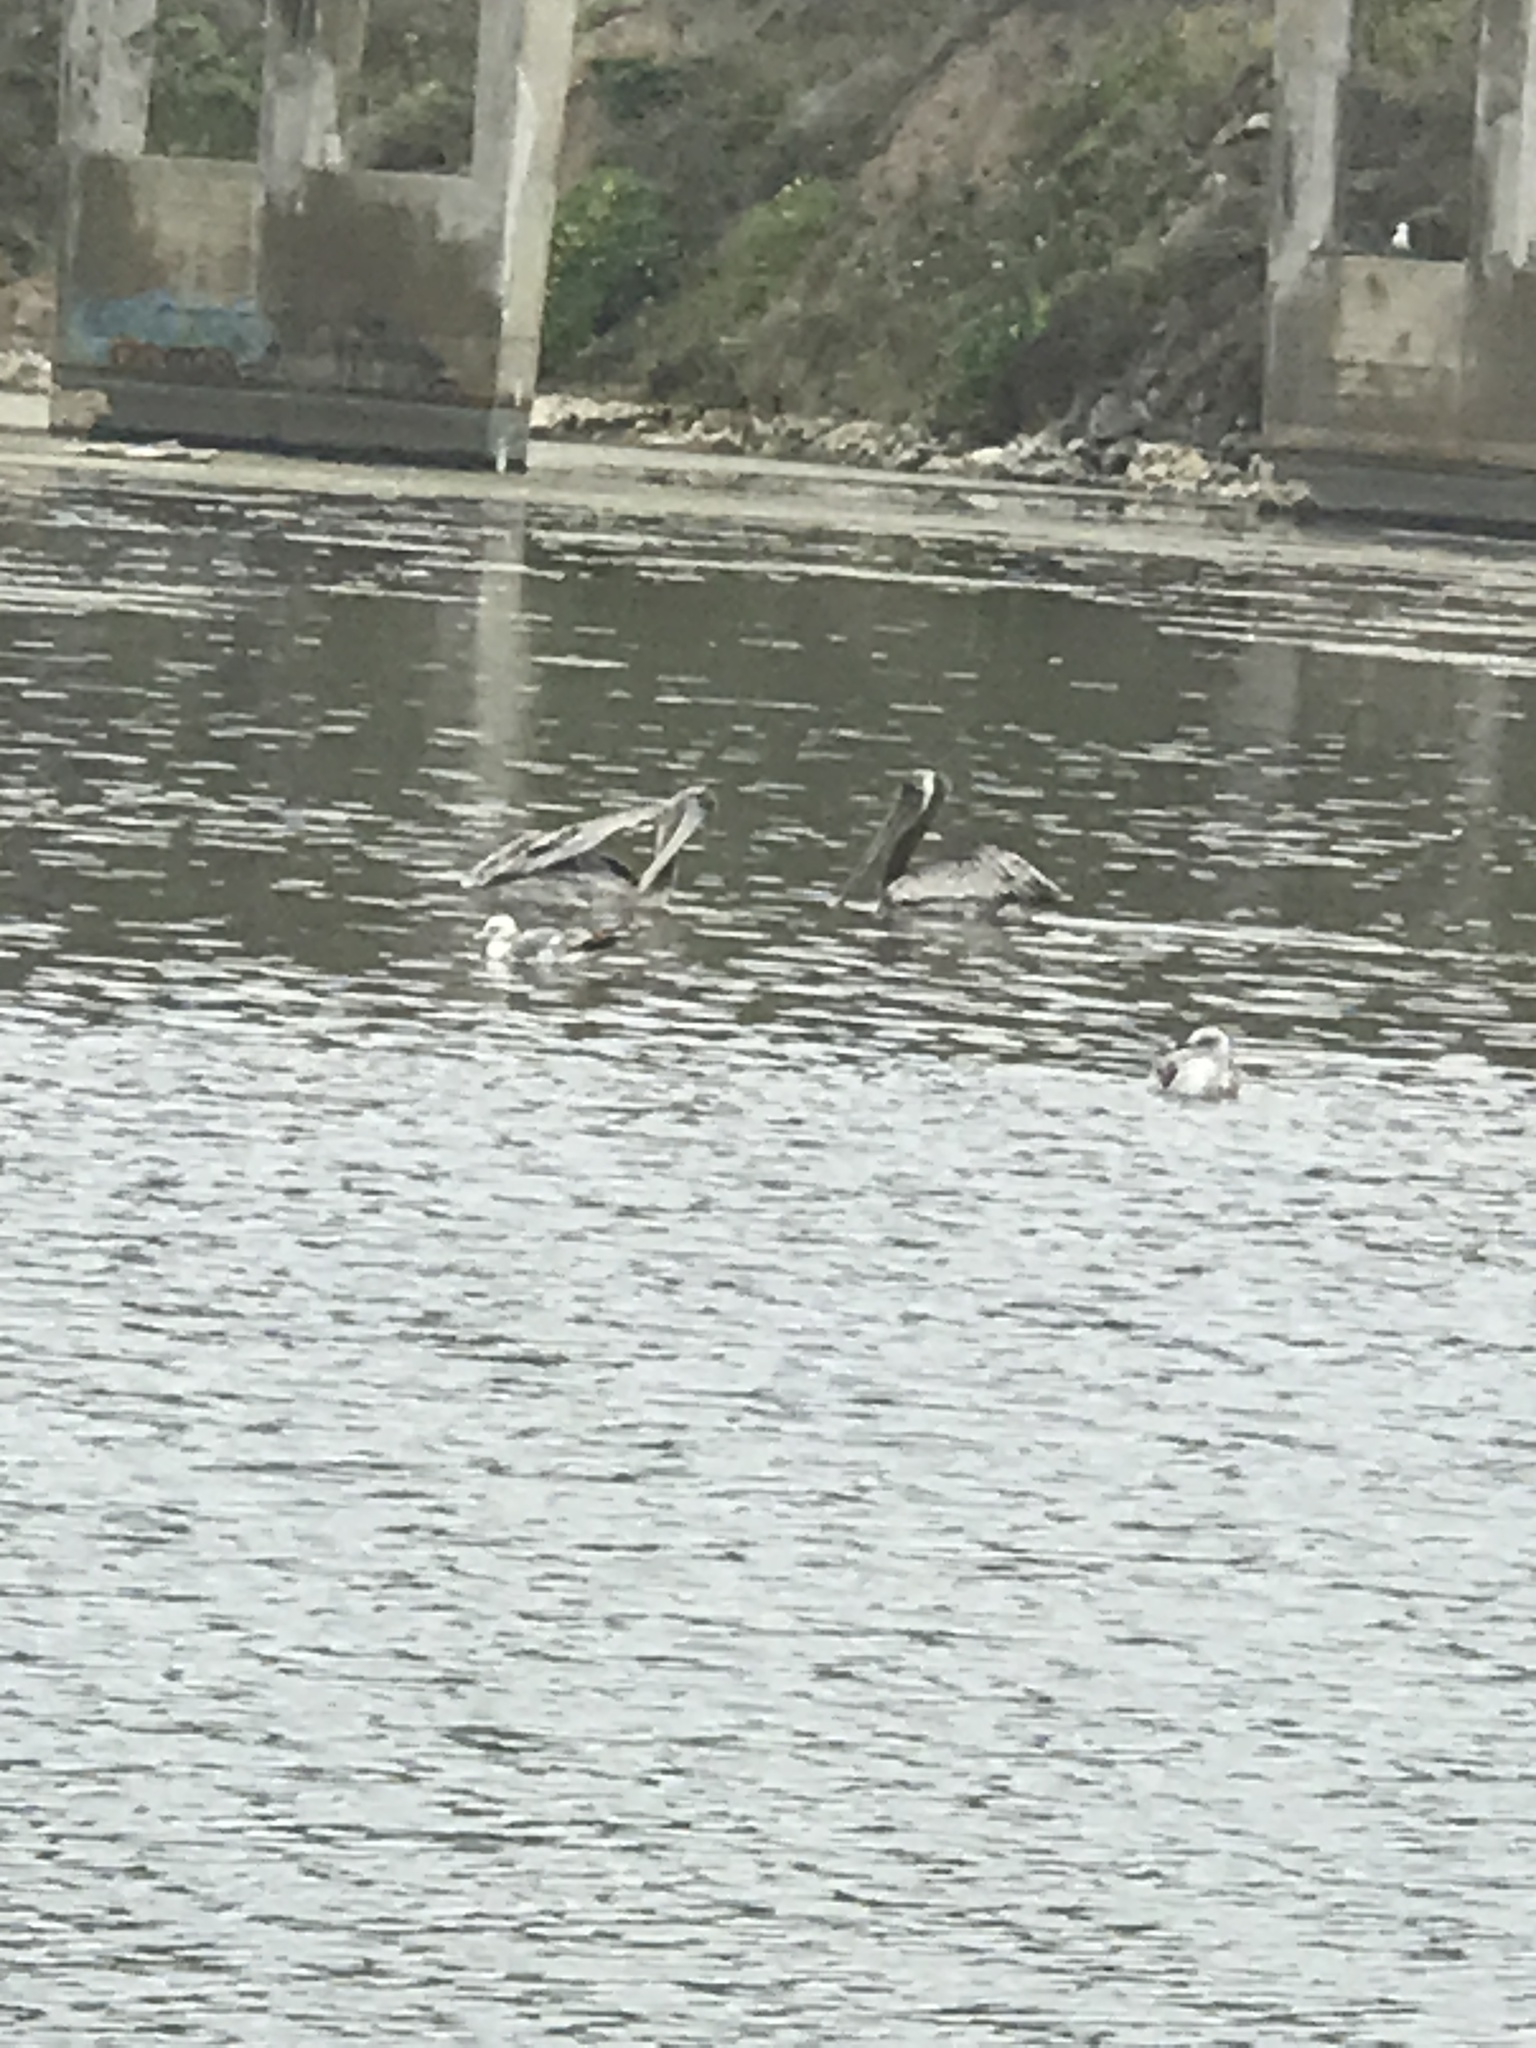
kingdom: Animalia
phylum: Chordata
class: Aves
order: Pelecaniformes
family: Pelecanidae
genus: Pelecanus
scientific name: Pelecanus occidentalis
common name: Brown pelican
